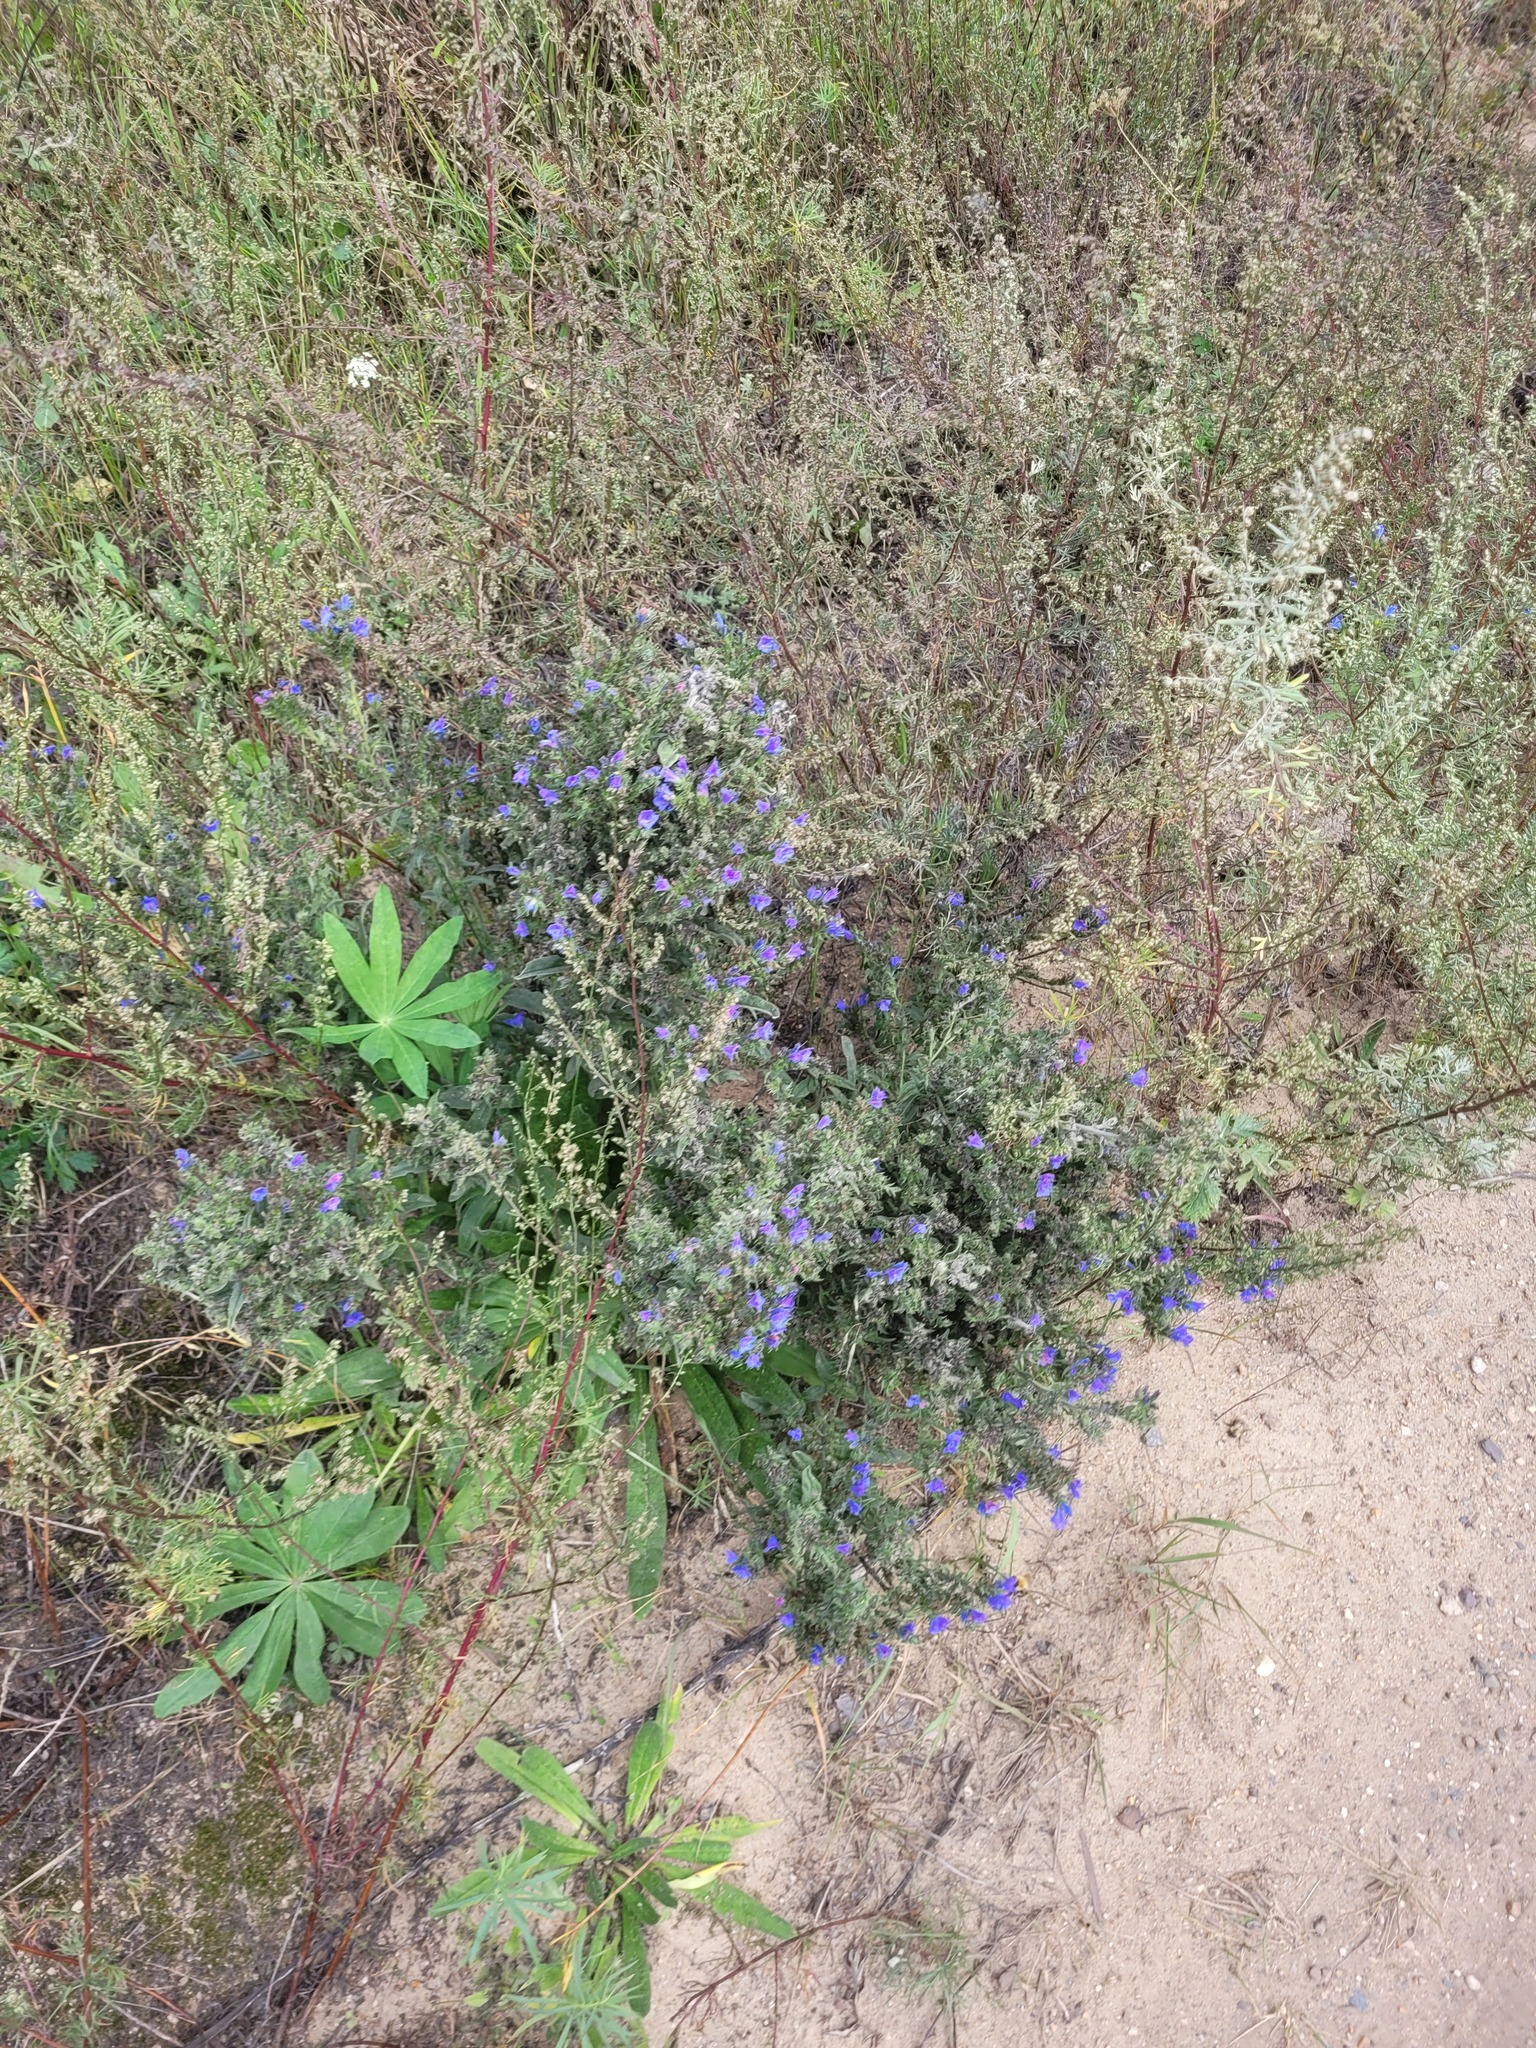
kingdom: Plantae
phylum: Tracheophyta
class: Magnoliopsida
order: Boraginales
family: Boraginaceae
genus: Echium
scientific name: Echium vulgare
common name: Common viper's bugloss
